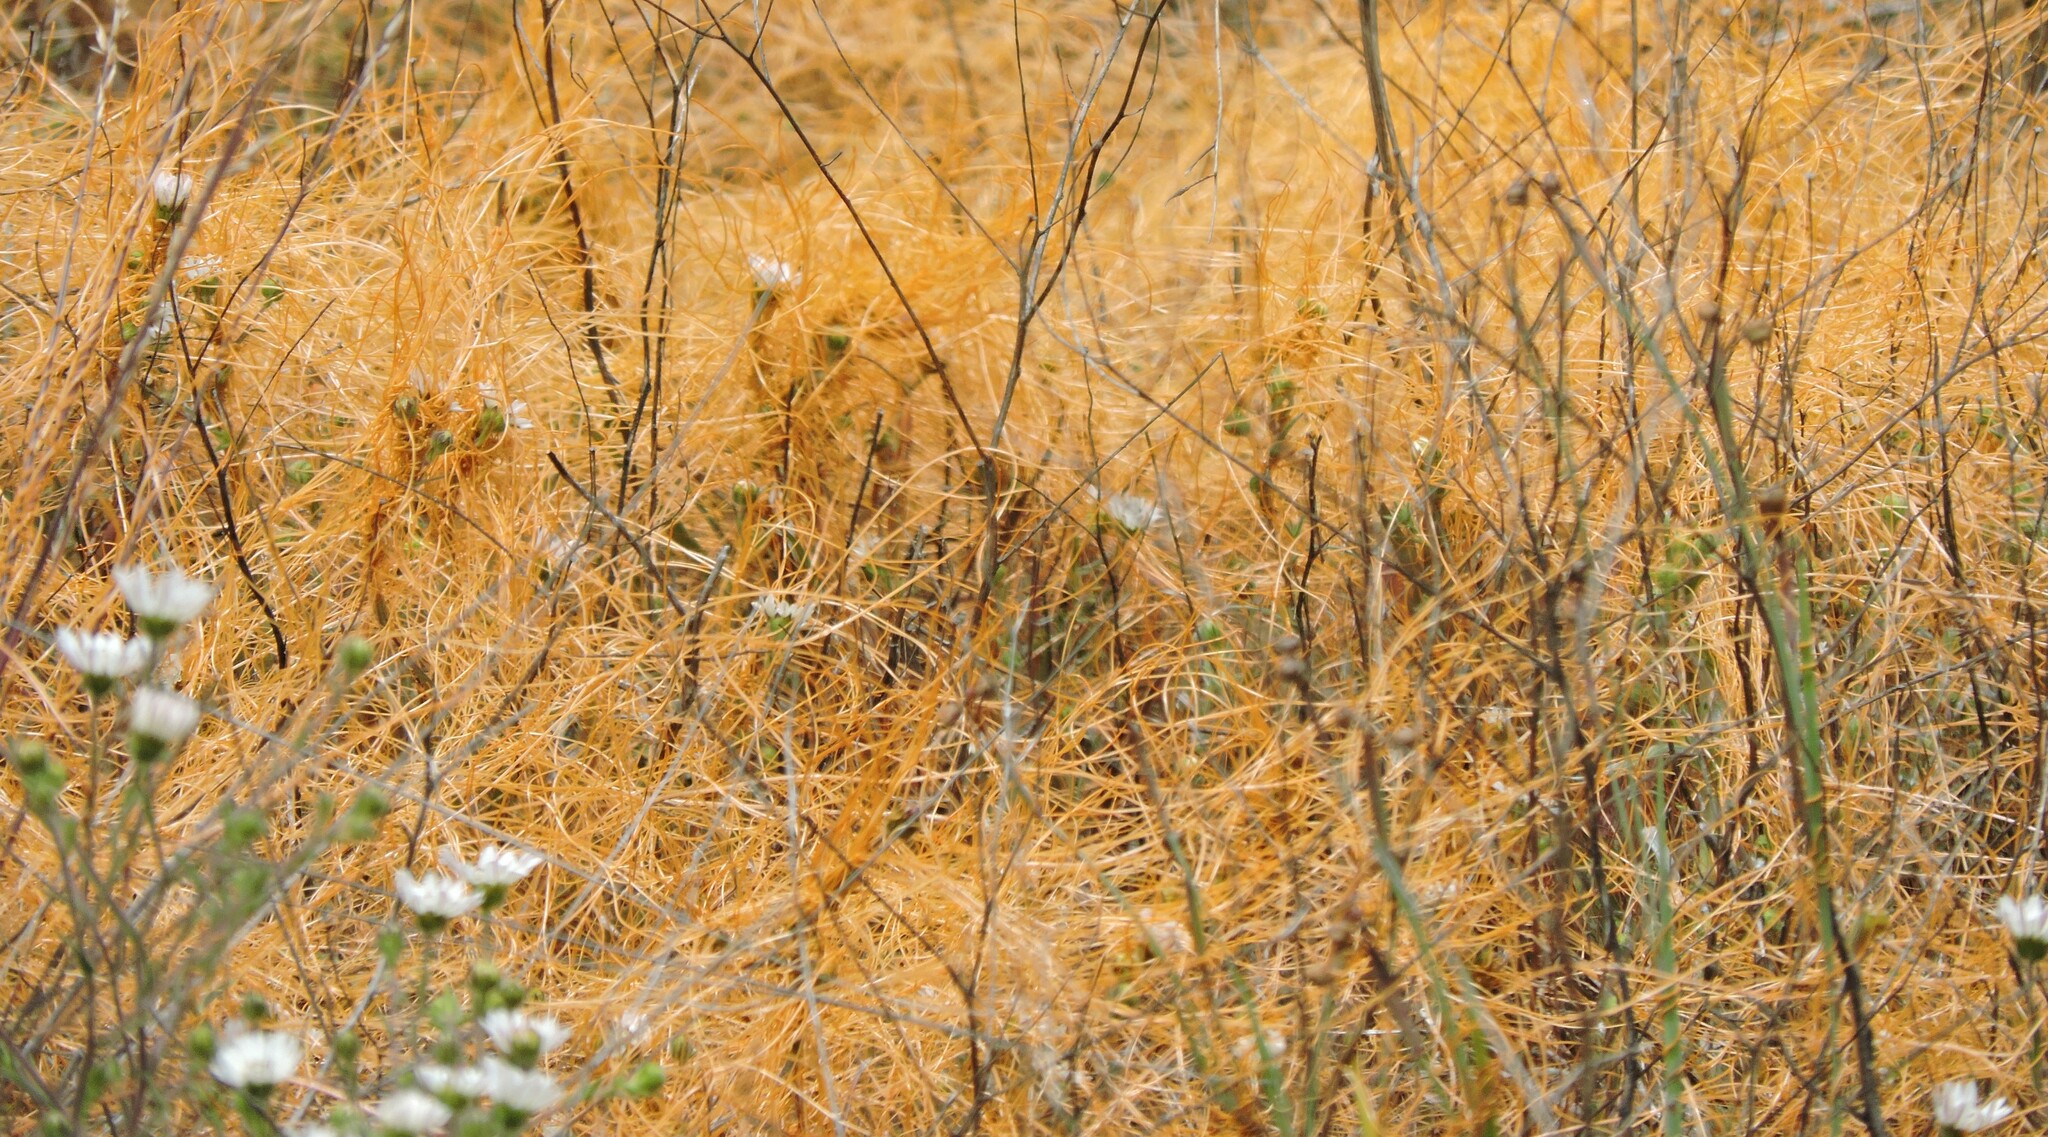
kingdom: Plantae
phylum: Tracheophyta
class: Magnoliopsida
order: Solanales
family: Convolvulaceae
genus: Cuscuta
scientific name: Cuscuta californica
